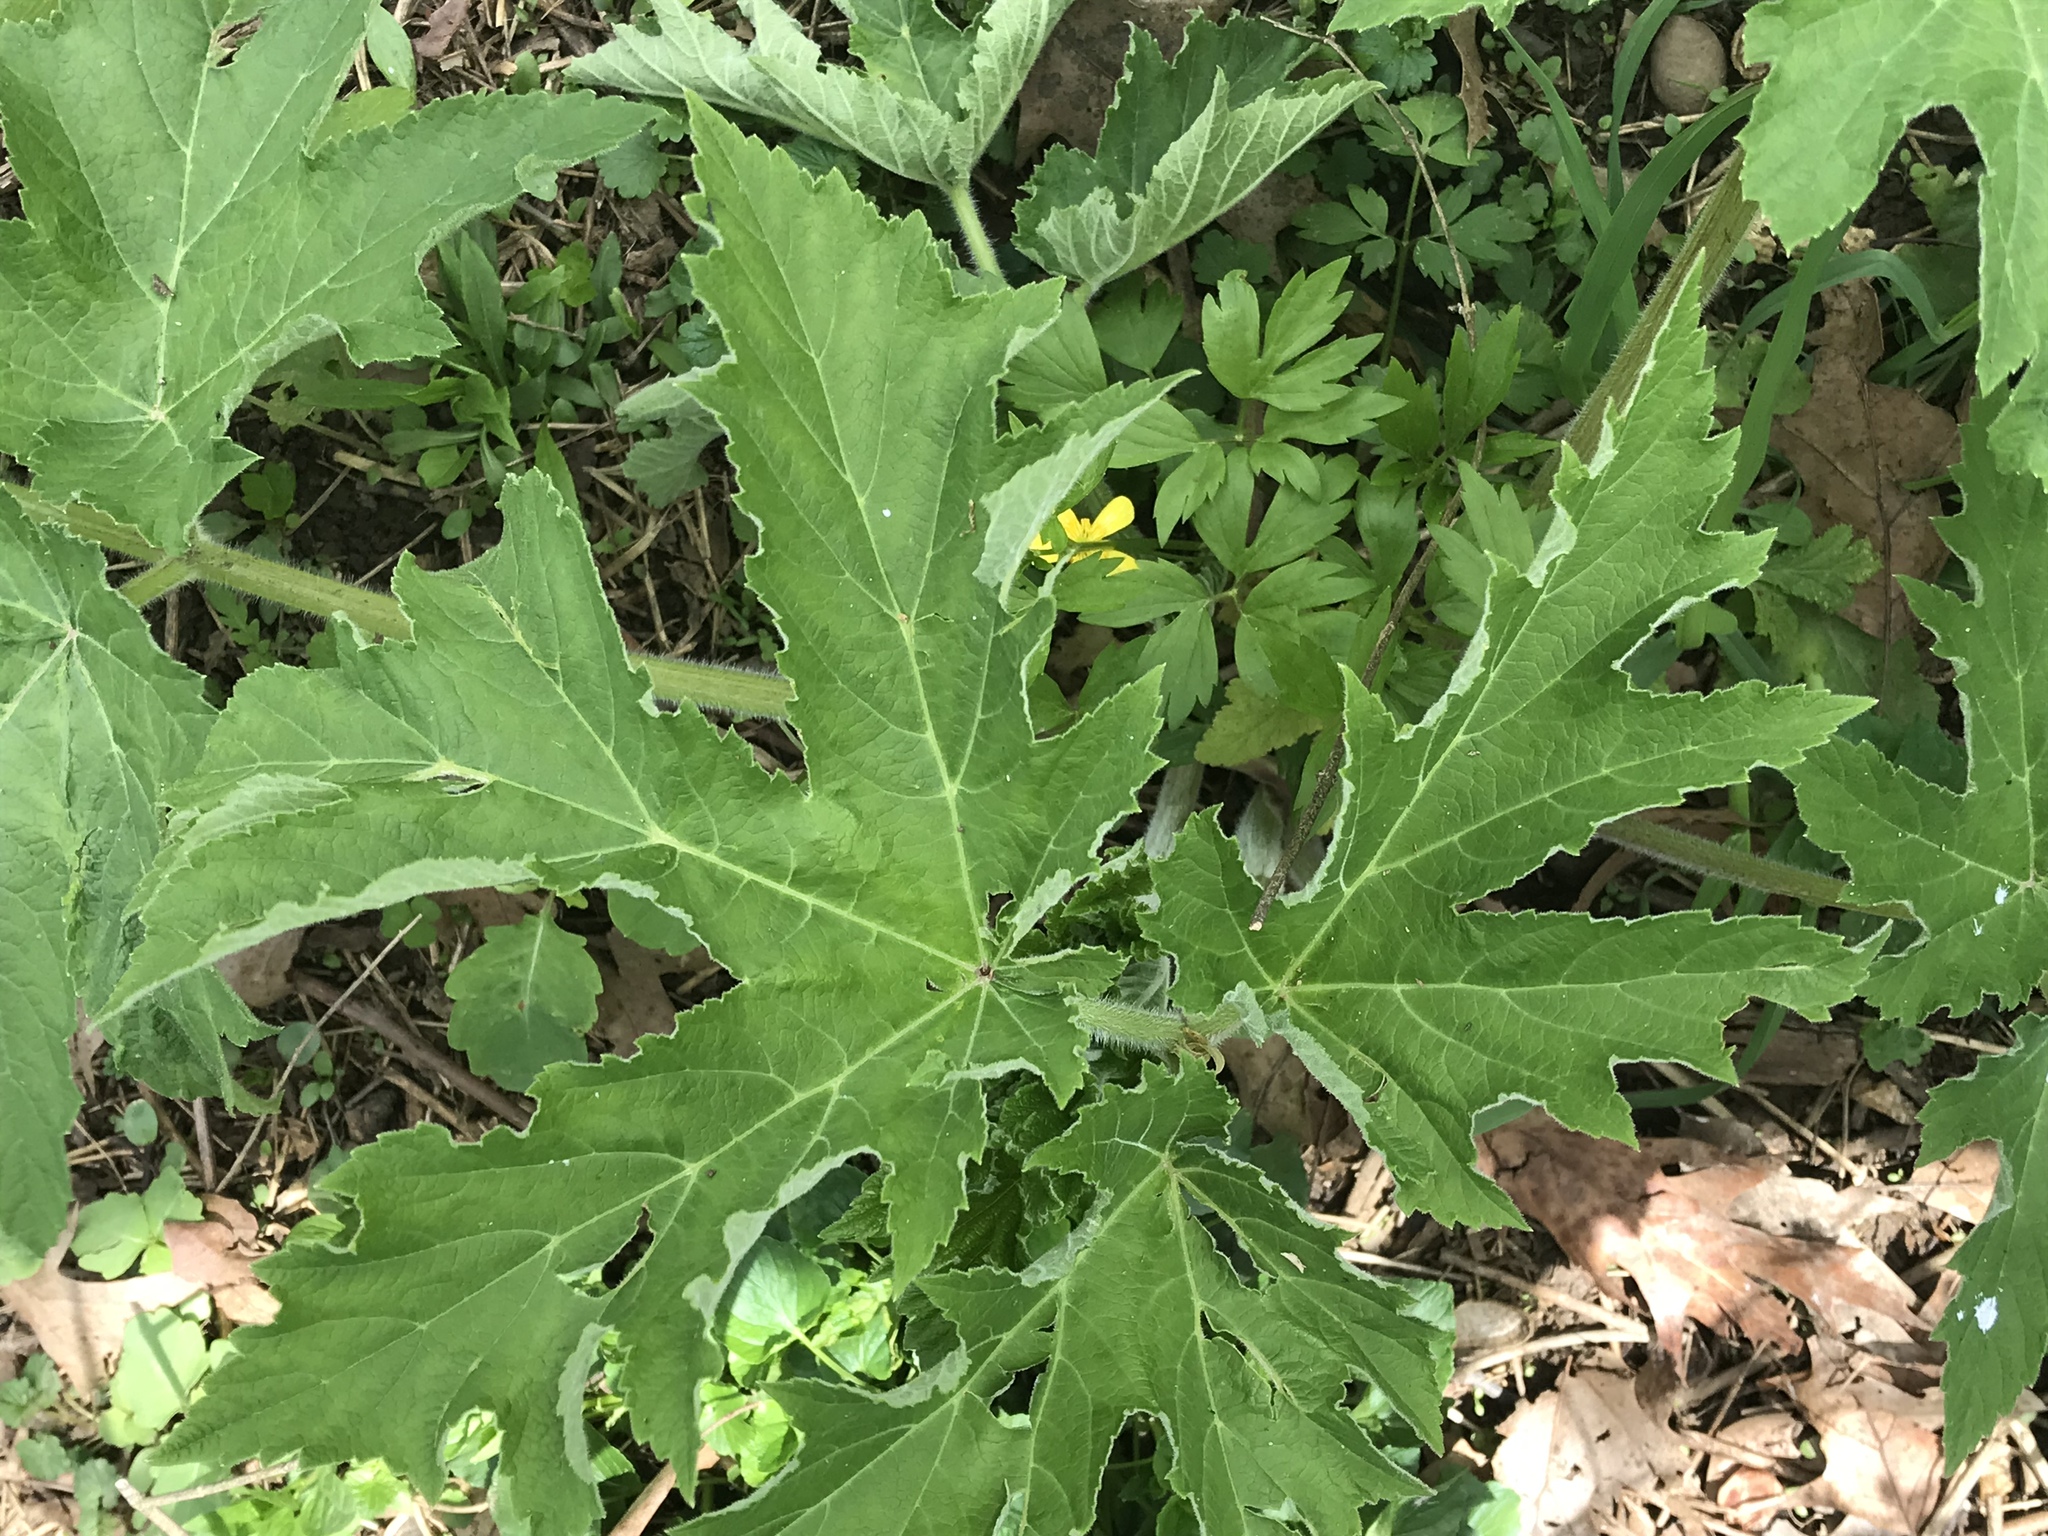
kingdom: Plantae
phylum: Tracheophyta
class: Magnoliopsida
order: Apiales
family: Apiaceae
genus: Heracleum
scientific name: Heracleum maximum
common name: American cow parsnip
